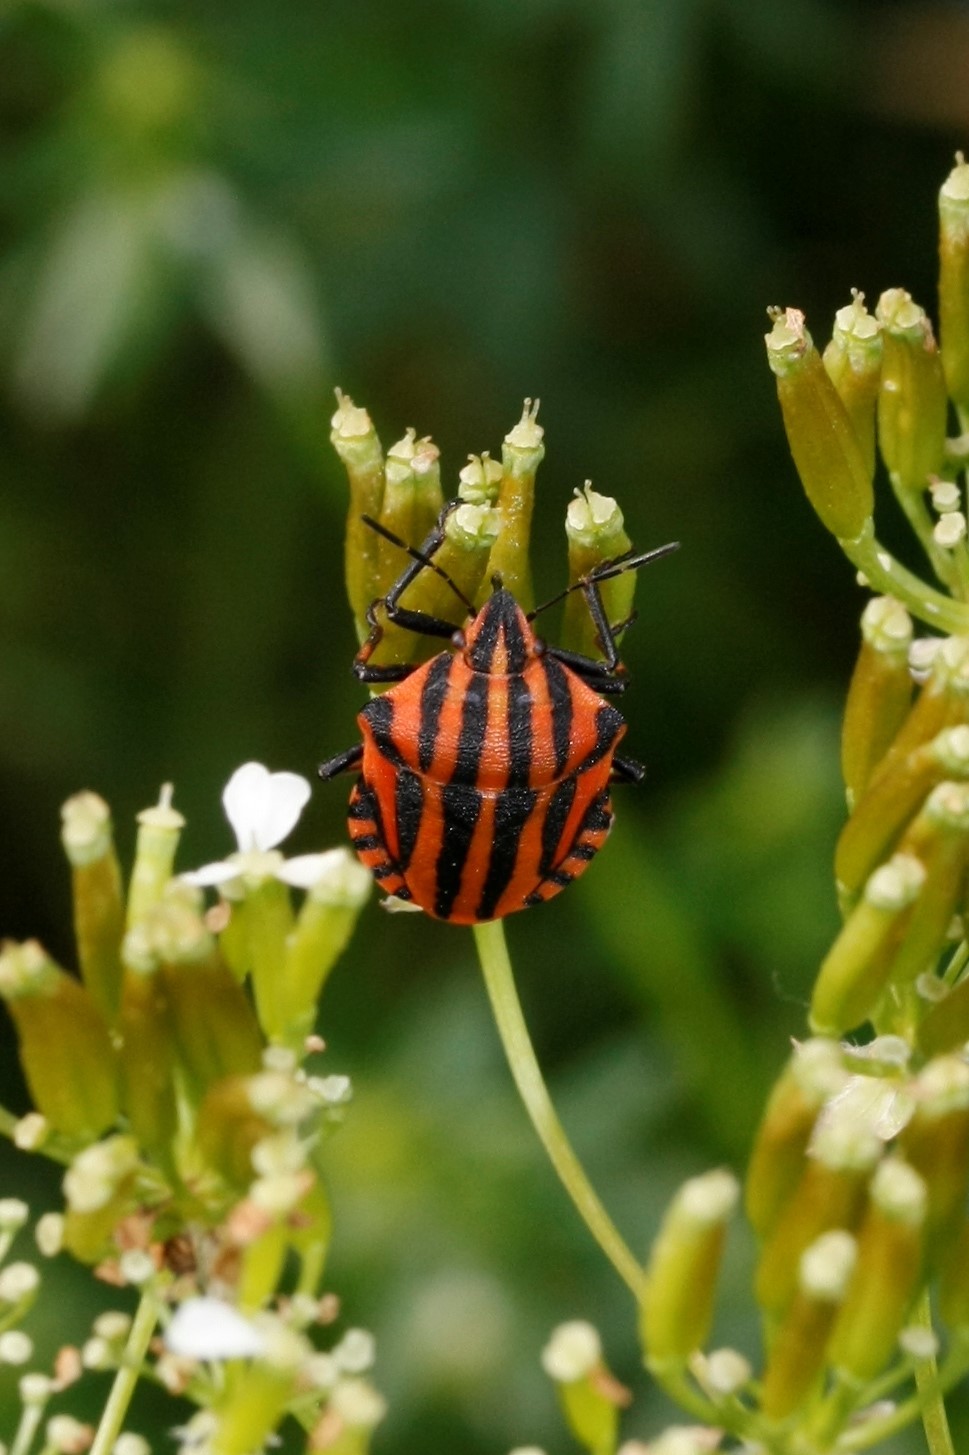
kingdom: Animalia
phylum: Arthropoda
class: Insecta
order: Hemiptera
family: Pentatomidae
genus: Graphosoma
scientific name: Graphosoma italicum
